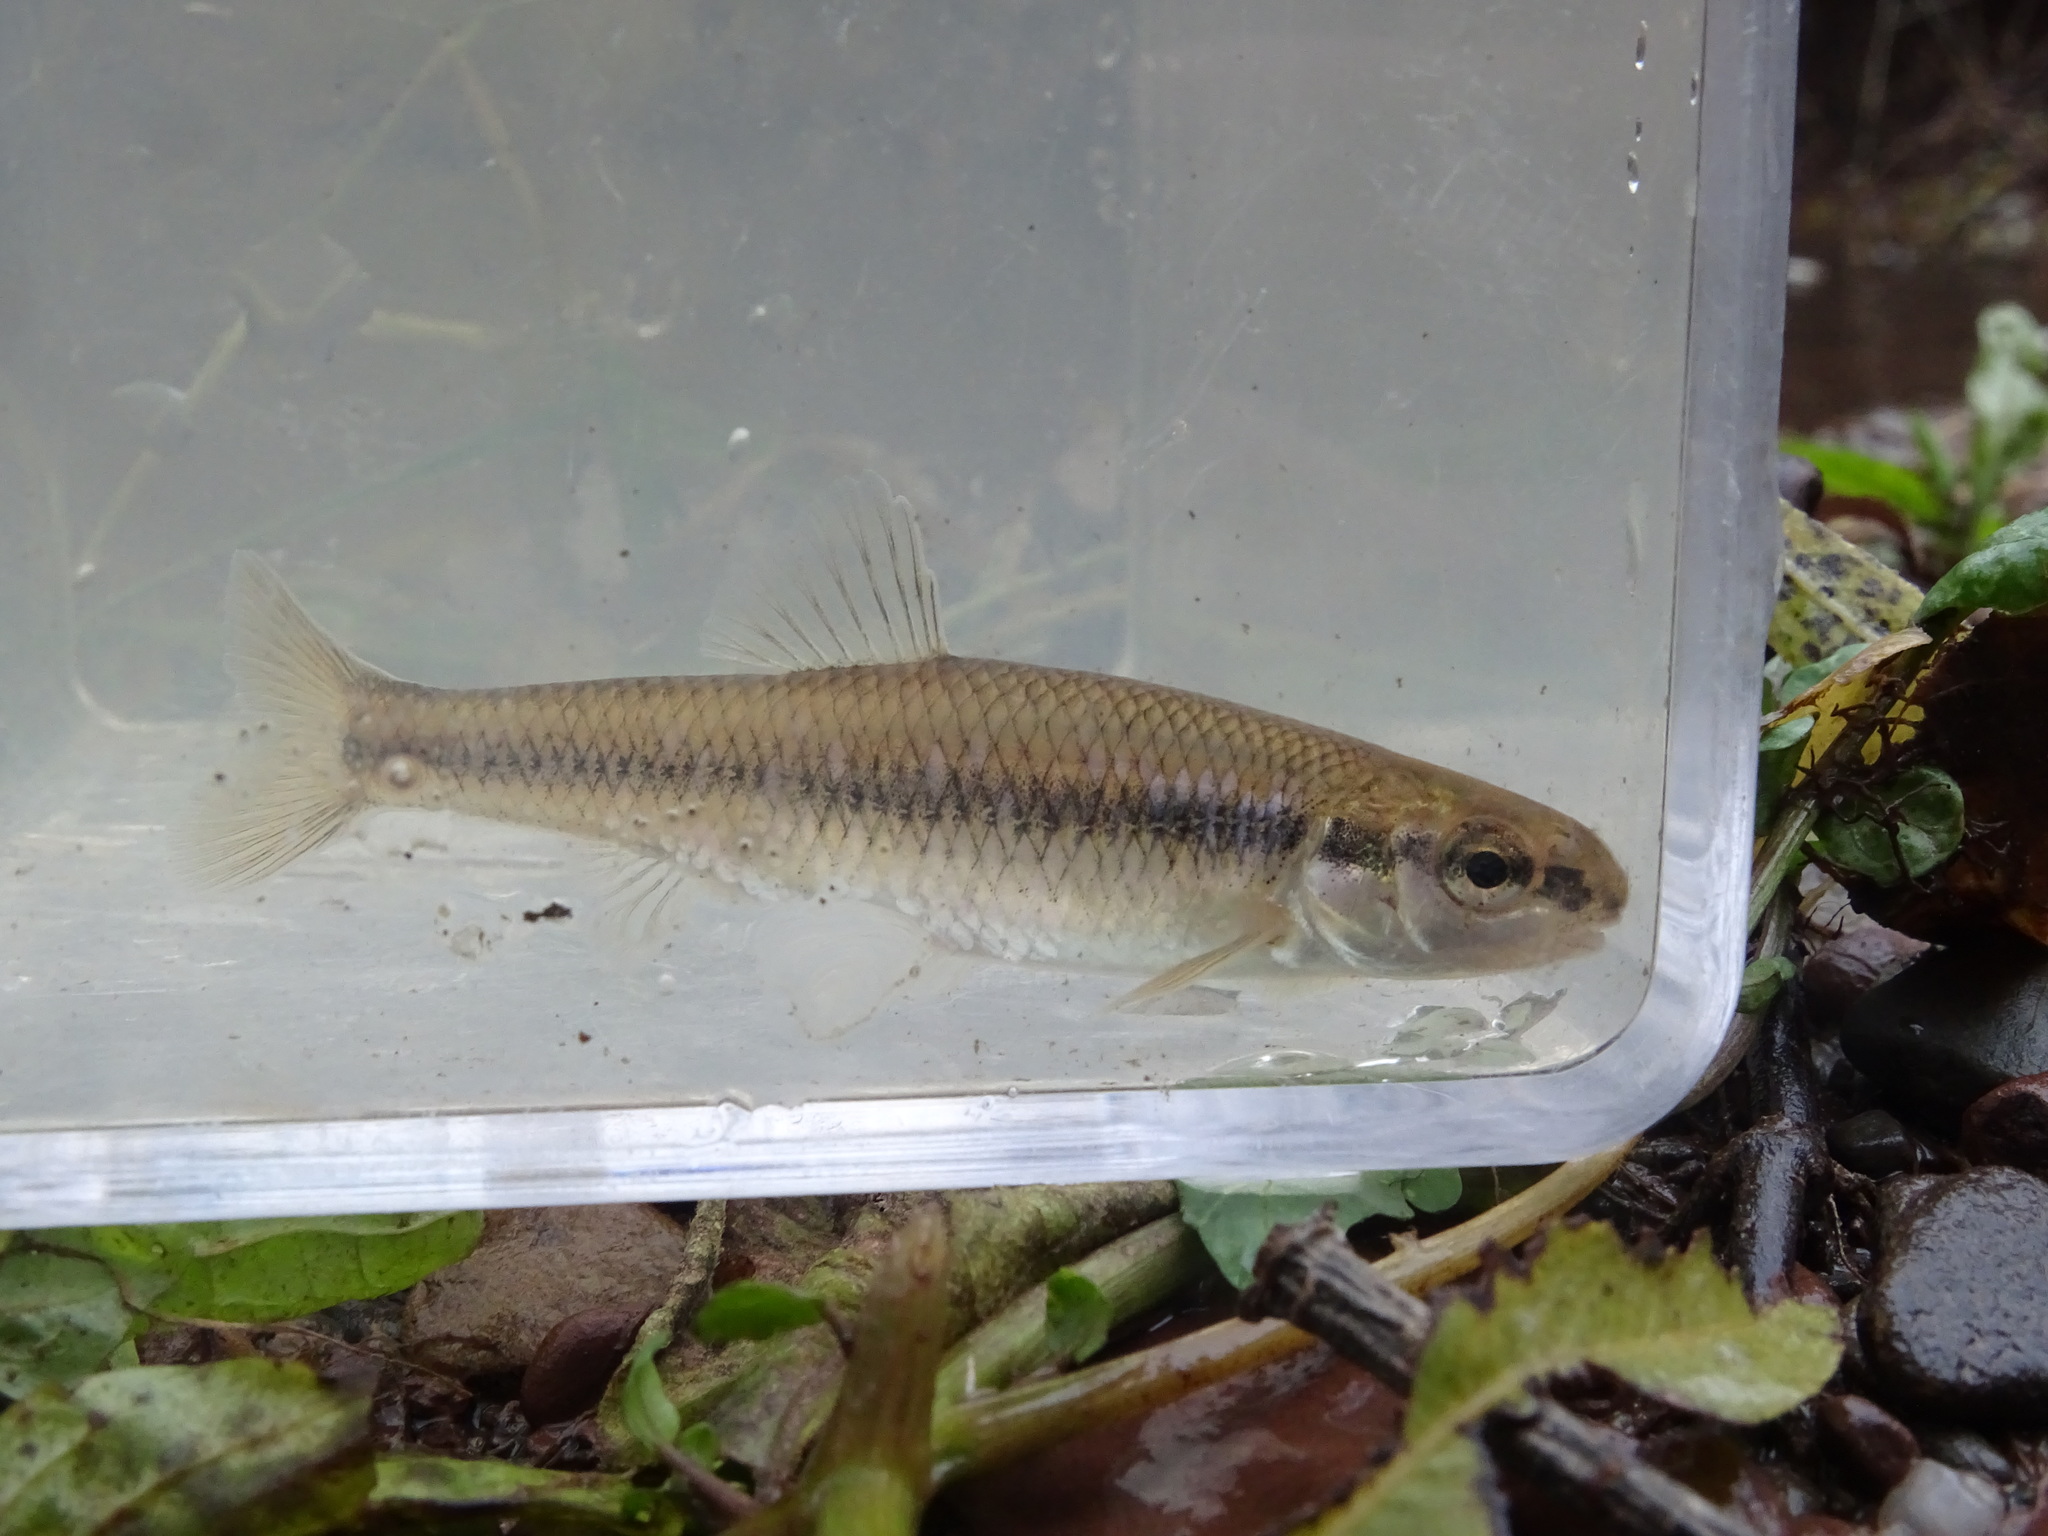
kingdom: Animalia
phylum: Chordata
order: Cypriniformes
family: Cyprinidae
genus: Pimephales
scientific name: Pimephales notatus
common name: Bluntnose minnow
